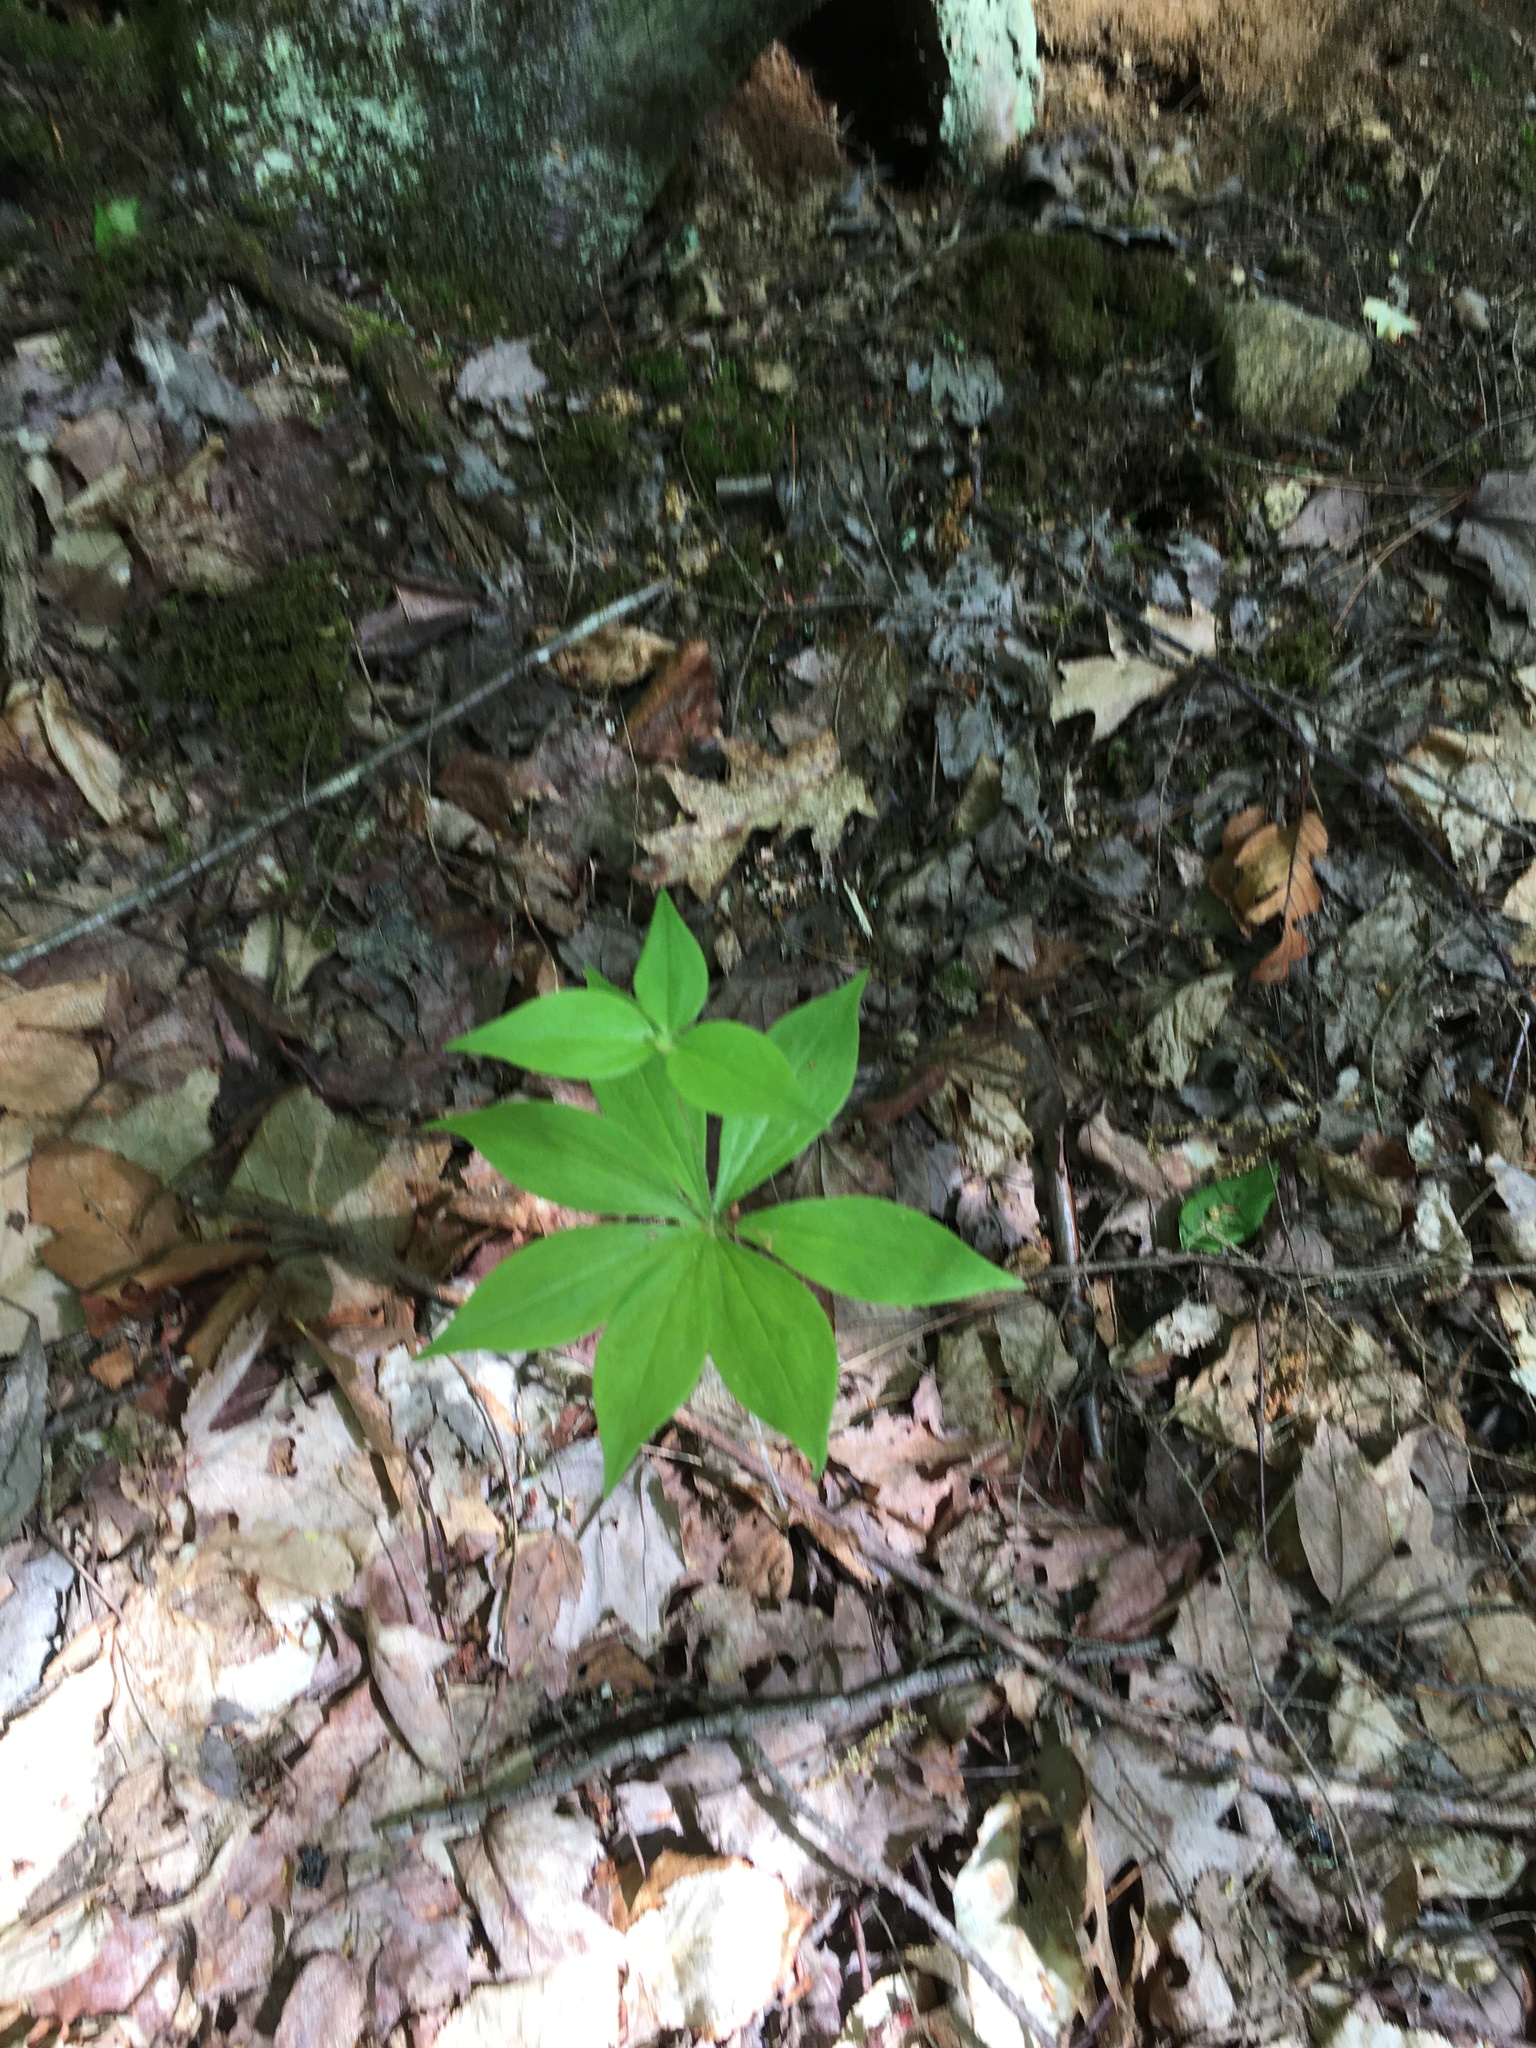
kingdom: Plantae
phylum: Tracheophyta
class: Liliopsida
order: Liliales
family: Liliaceae
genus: Medeola
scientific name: Medeola virginiana
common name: Indian cucumber-root
